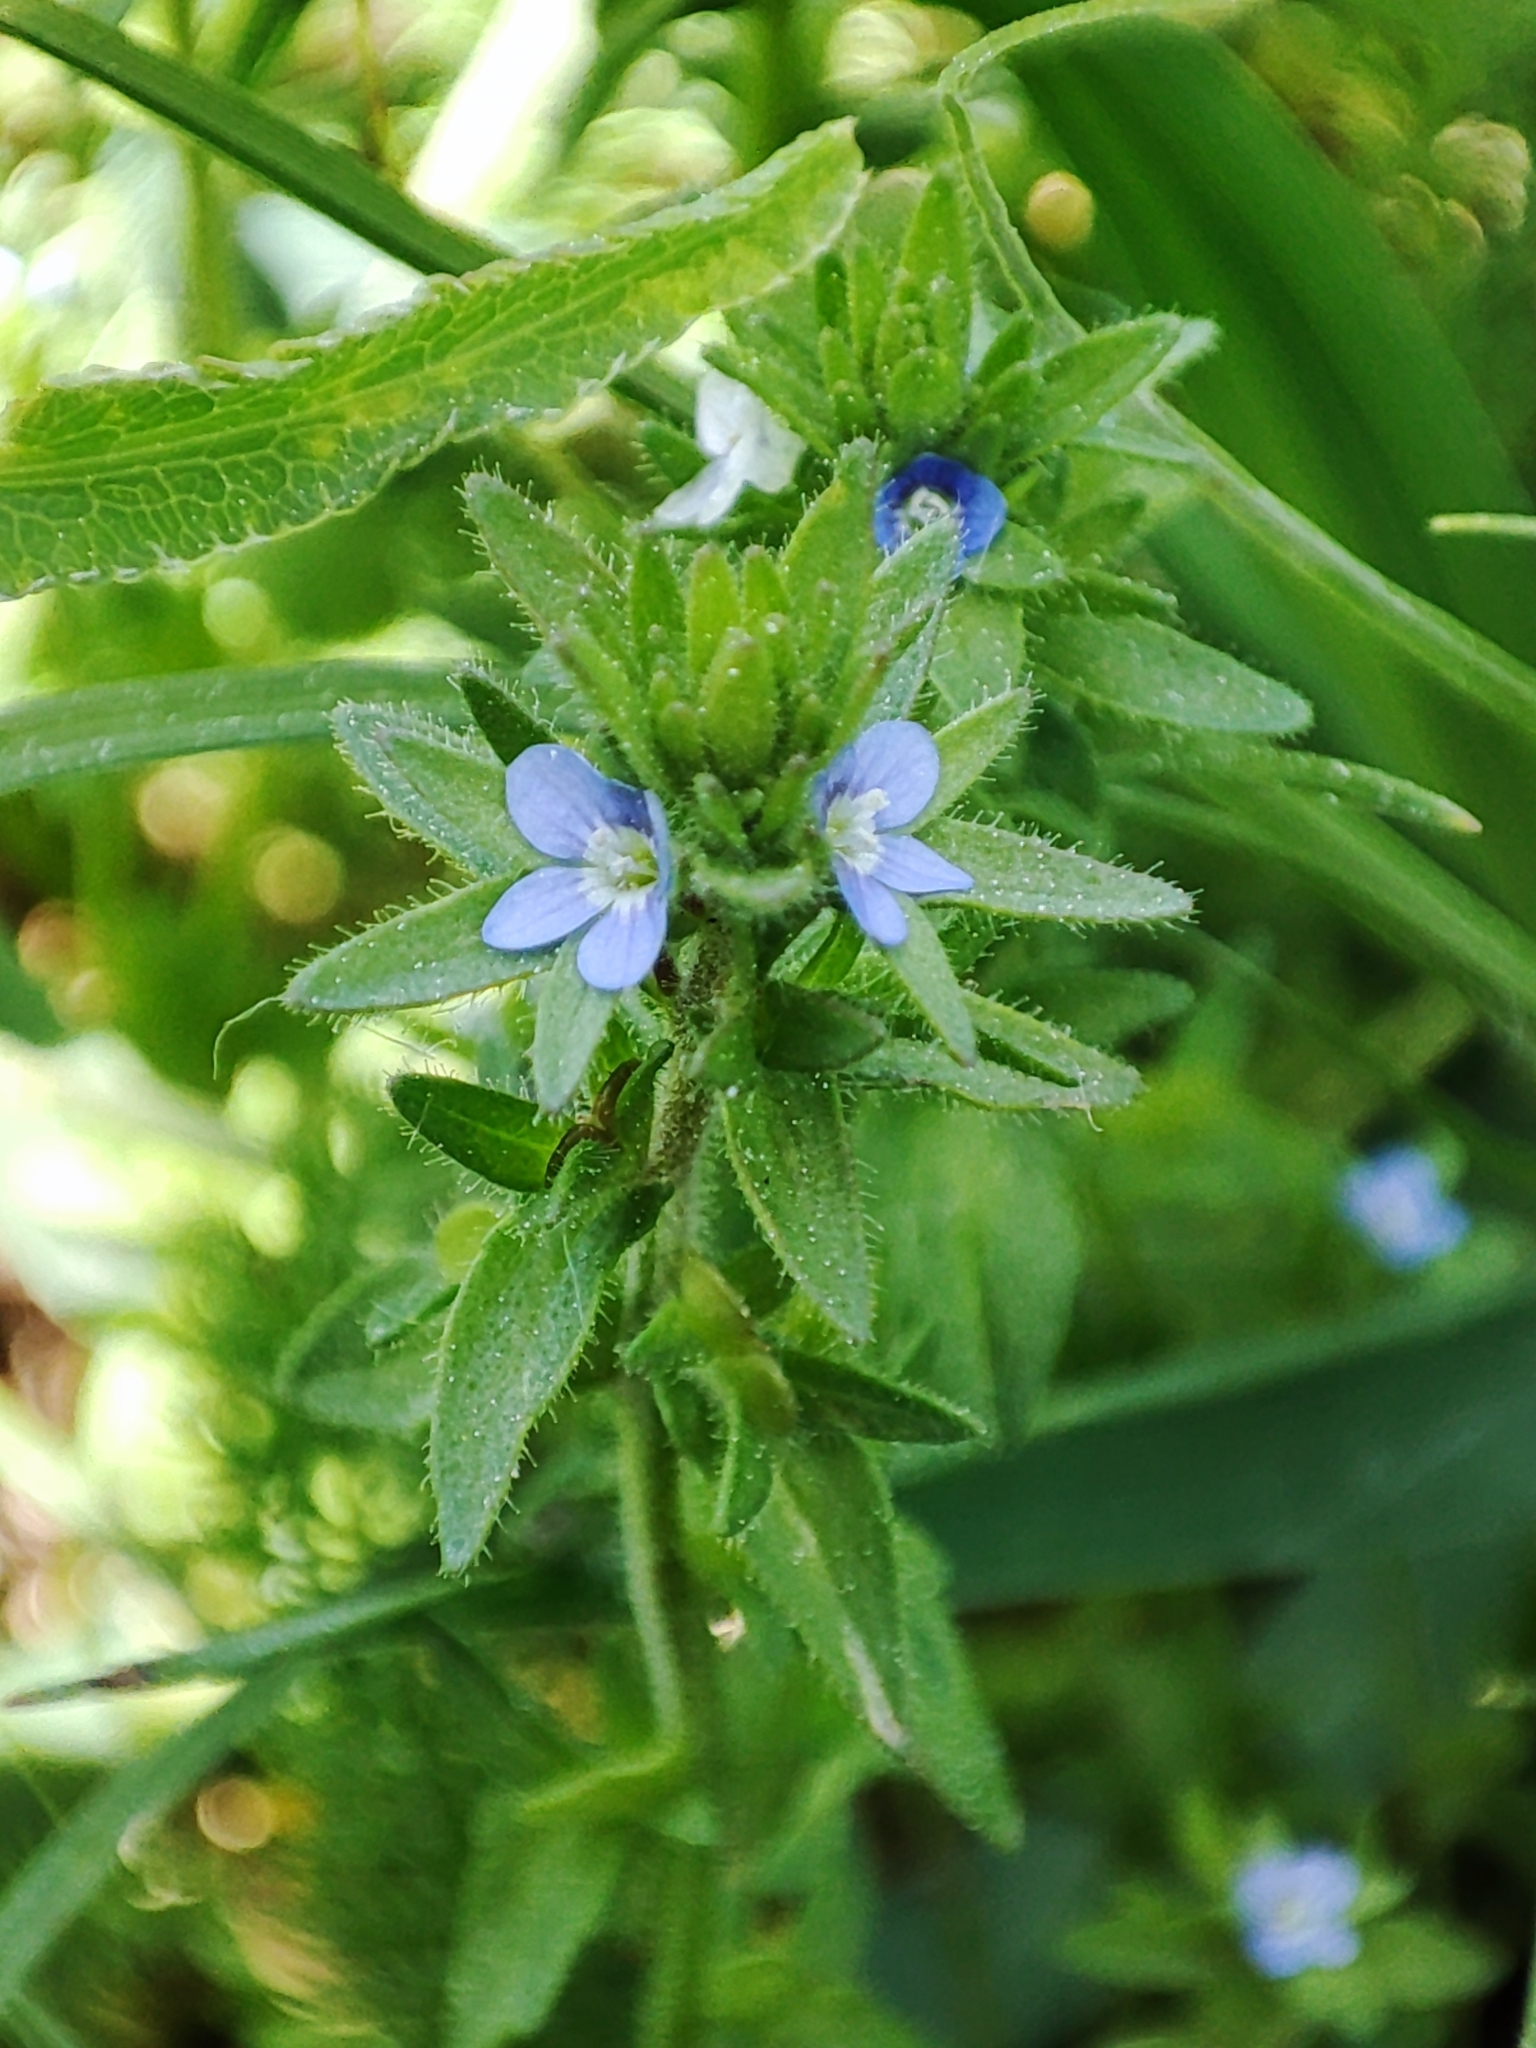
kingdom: Plantae
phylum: Tracheophyta
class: Magnoliopsida
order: Lamiales
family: Plantaginaceae
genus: Veronica
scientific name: Veronica arvensis
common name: Corn speedwell
